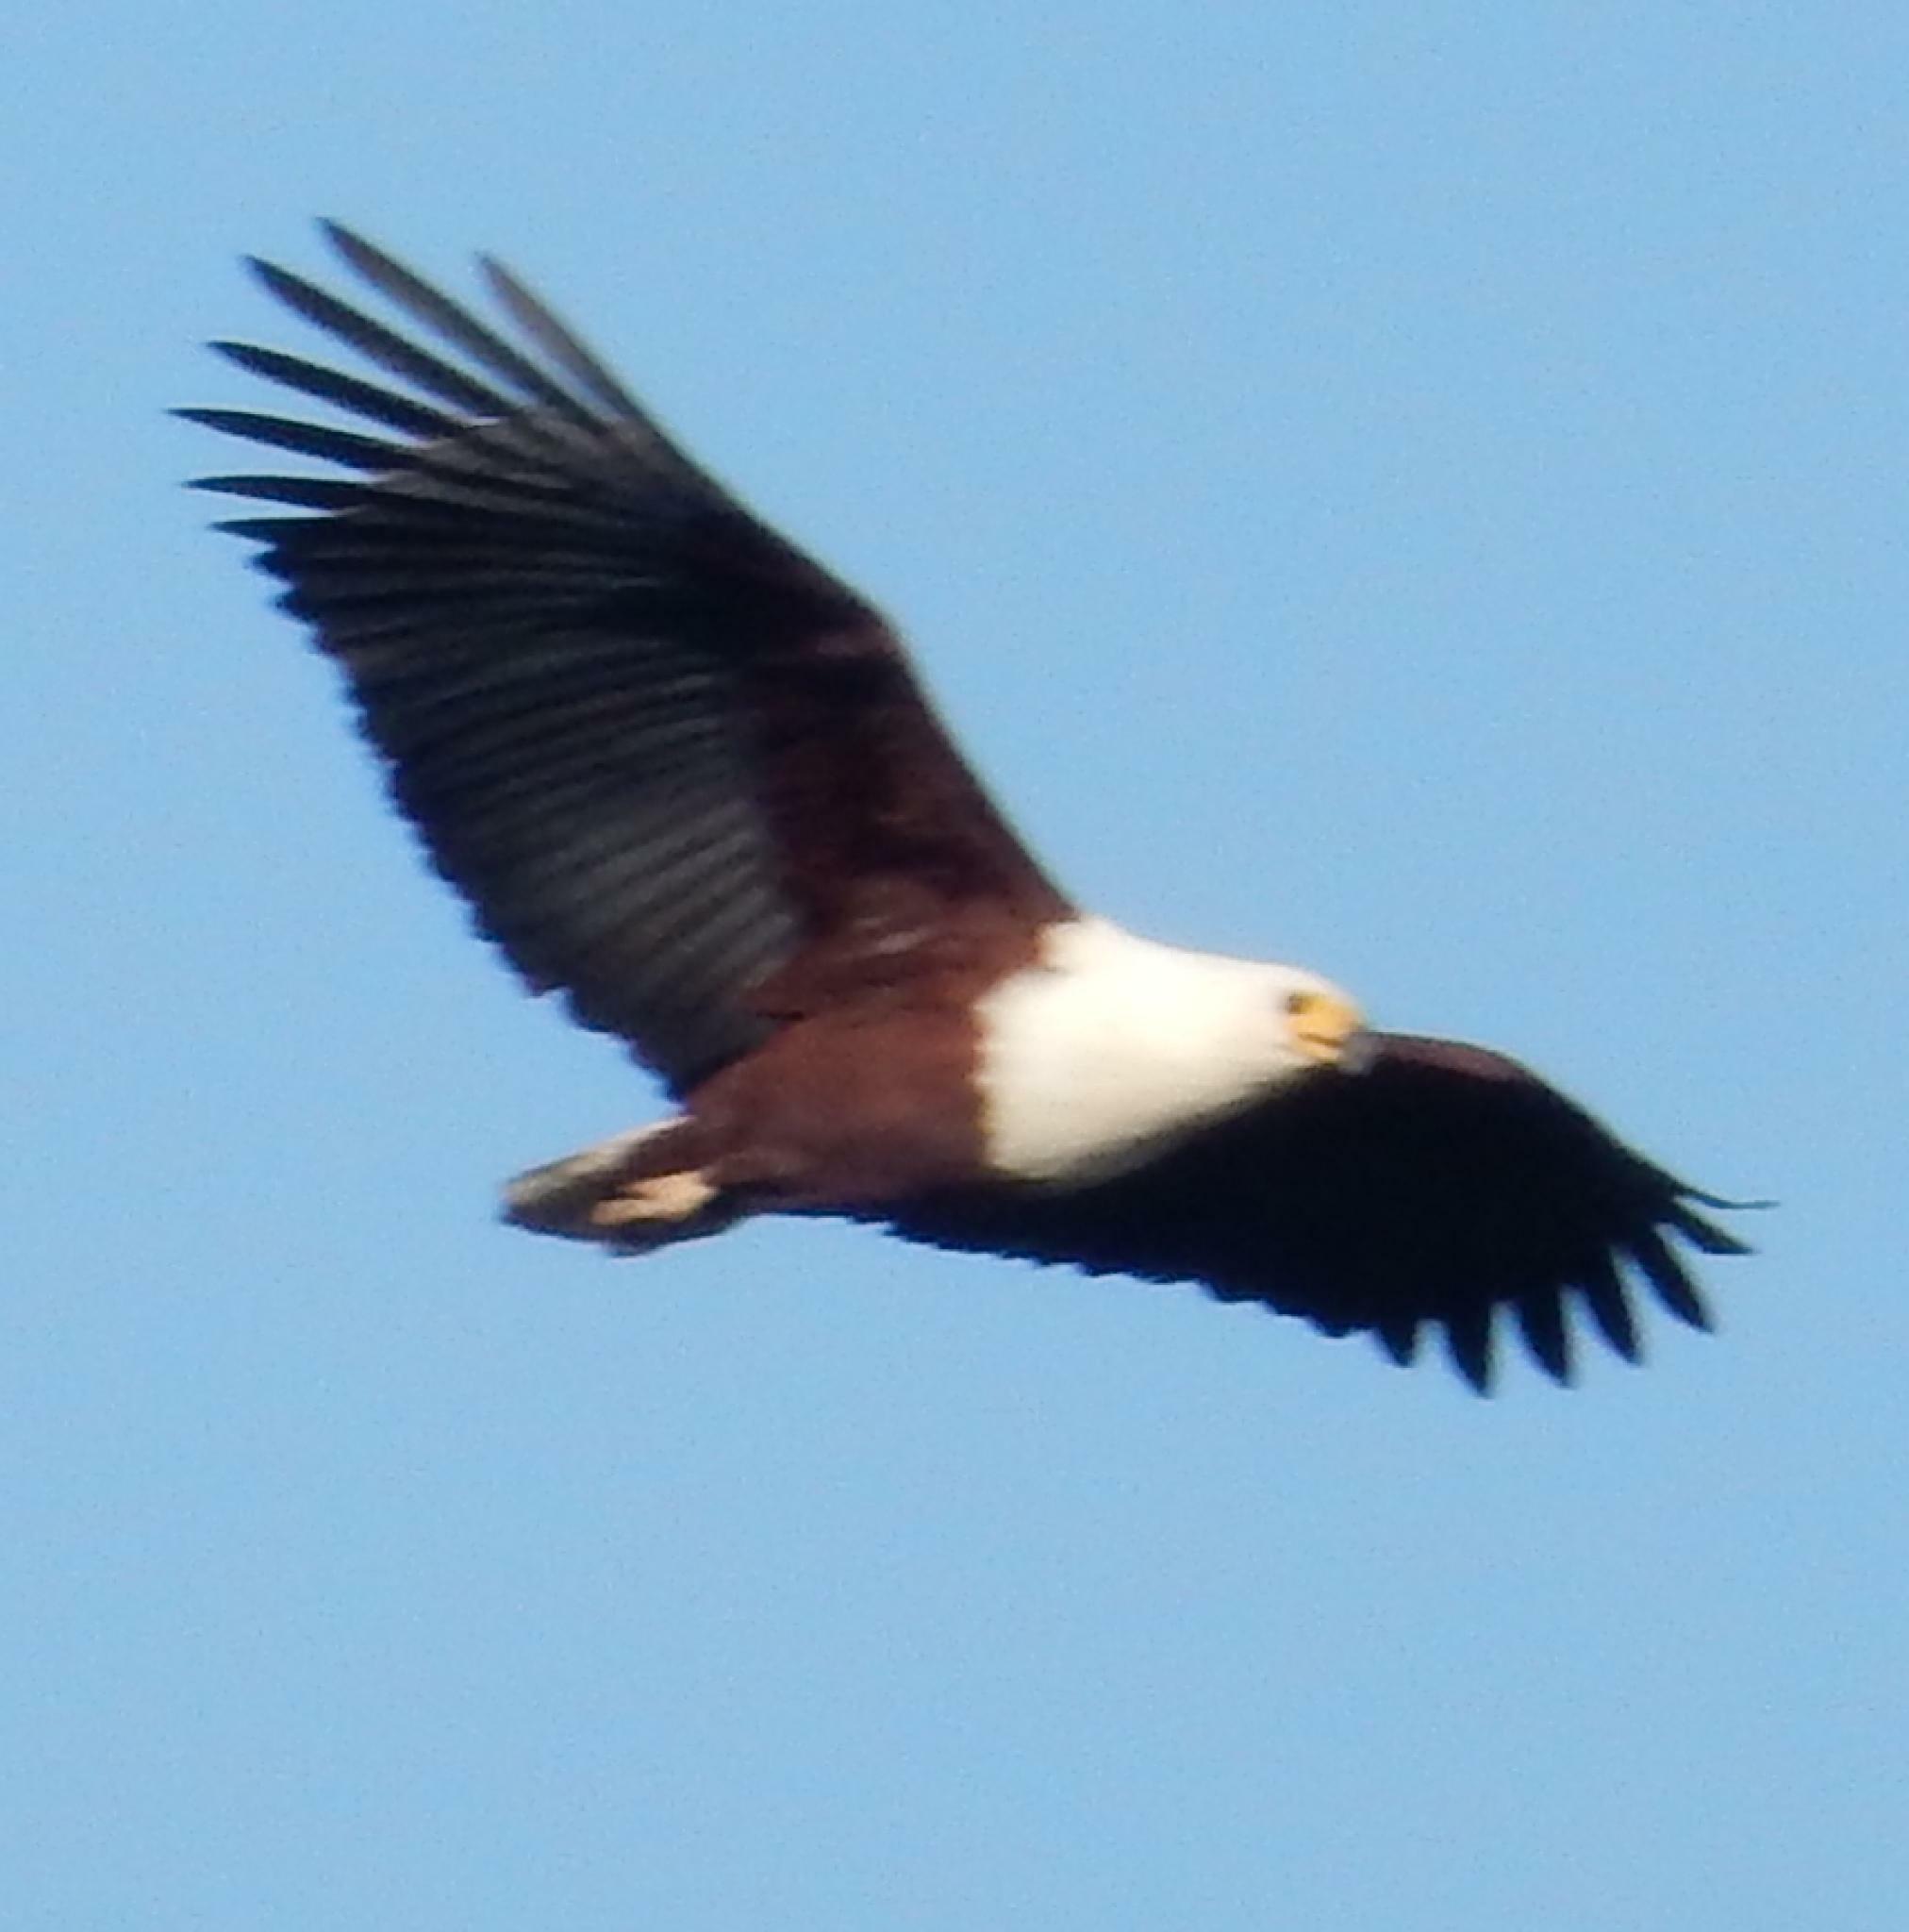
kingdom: Animalia
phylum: Chordata
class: Aves
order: Accipitriformes
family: Accipitridae
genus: Haliaeetus
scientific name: Haliaeetus vocifer
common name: African fish eagle
